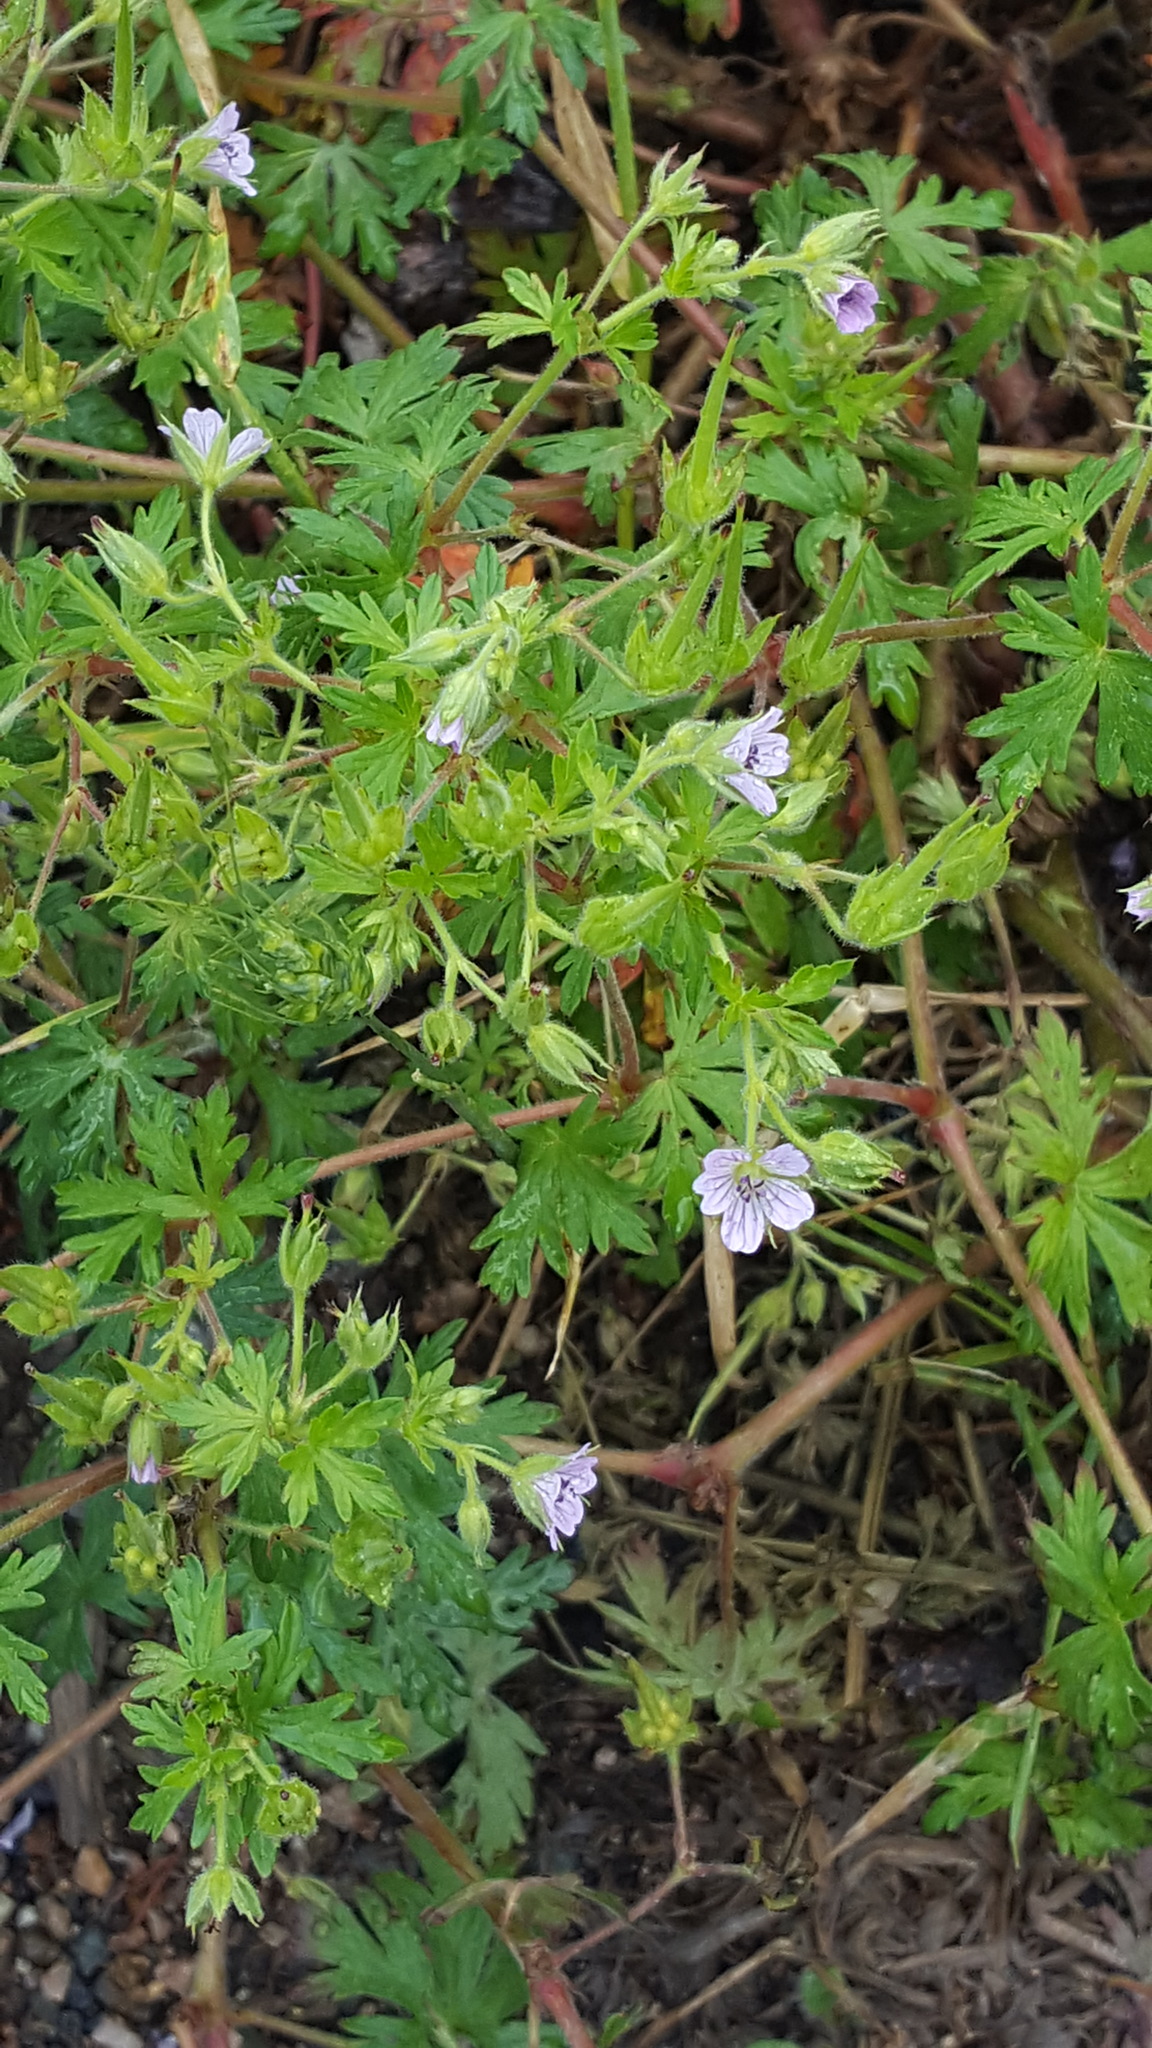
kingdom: Plantae
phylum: Tracheophyta
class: Magnoliopsida
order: Geraniales
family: Geraniaceae
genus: Geranium
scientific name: Geranium bicknellii
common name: Bicknell's cranesbill
